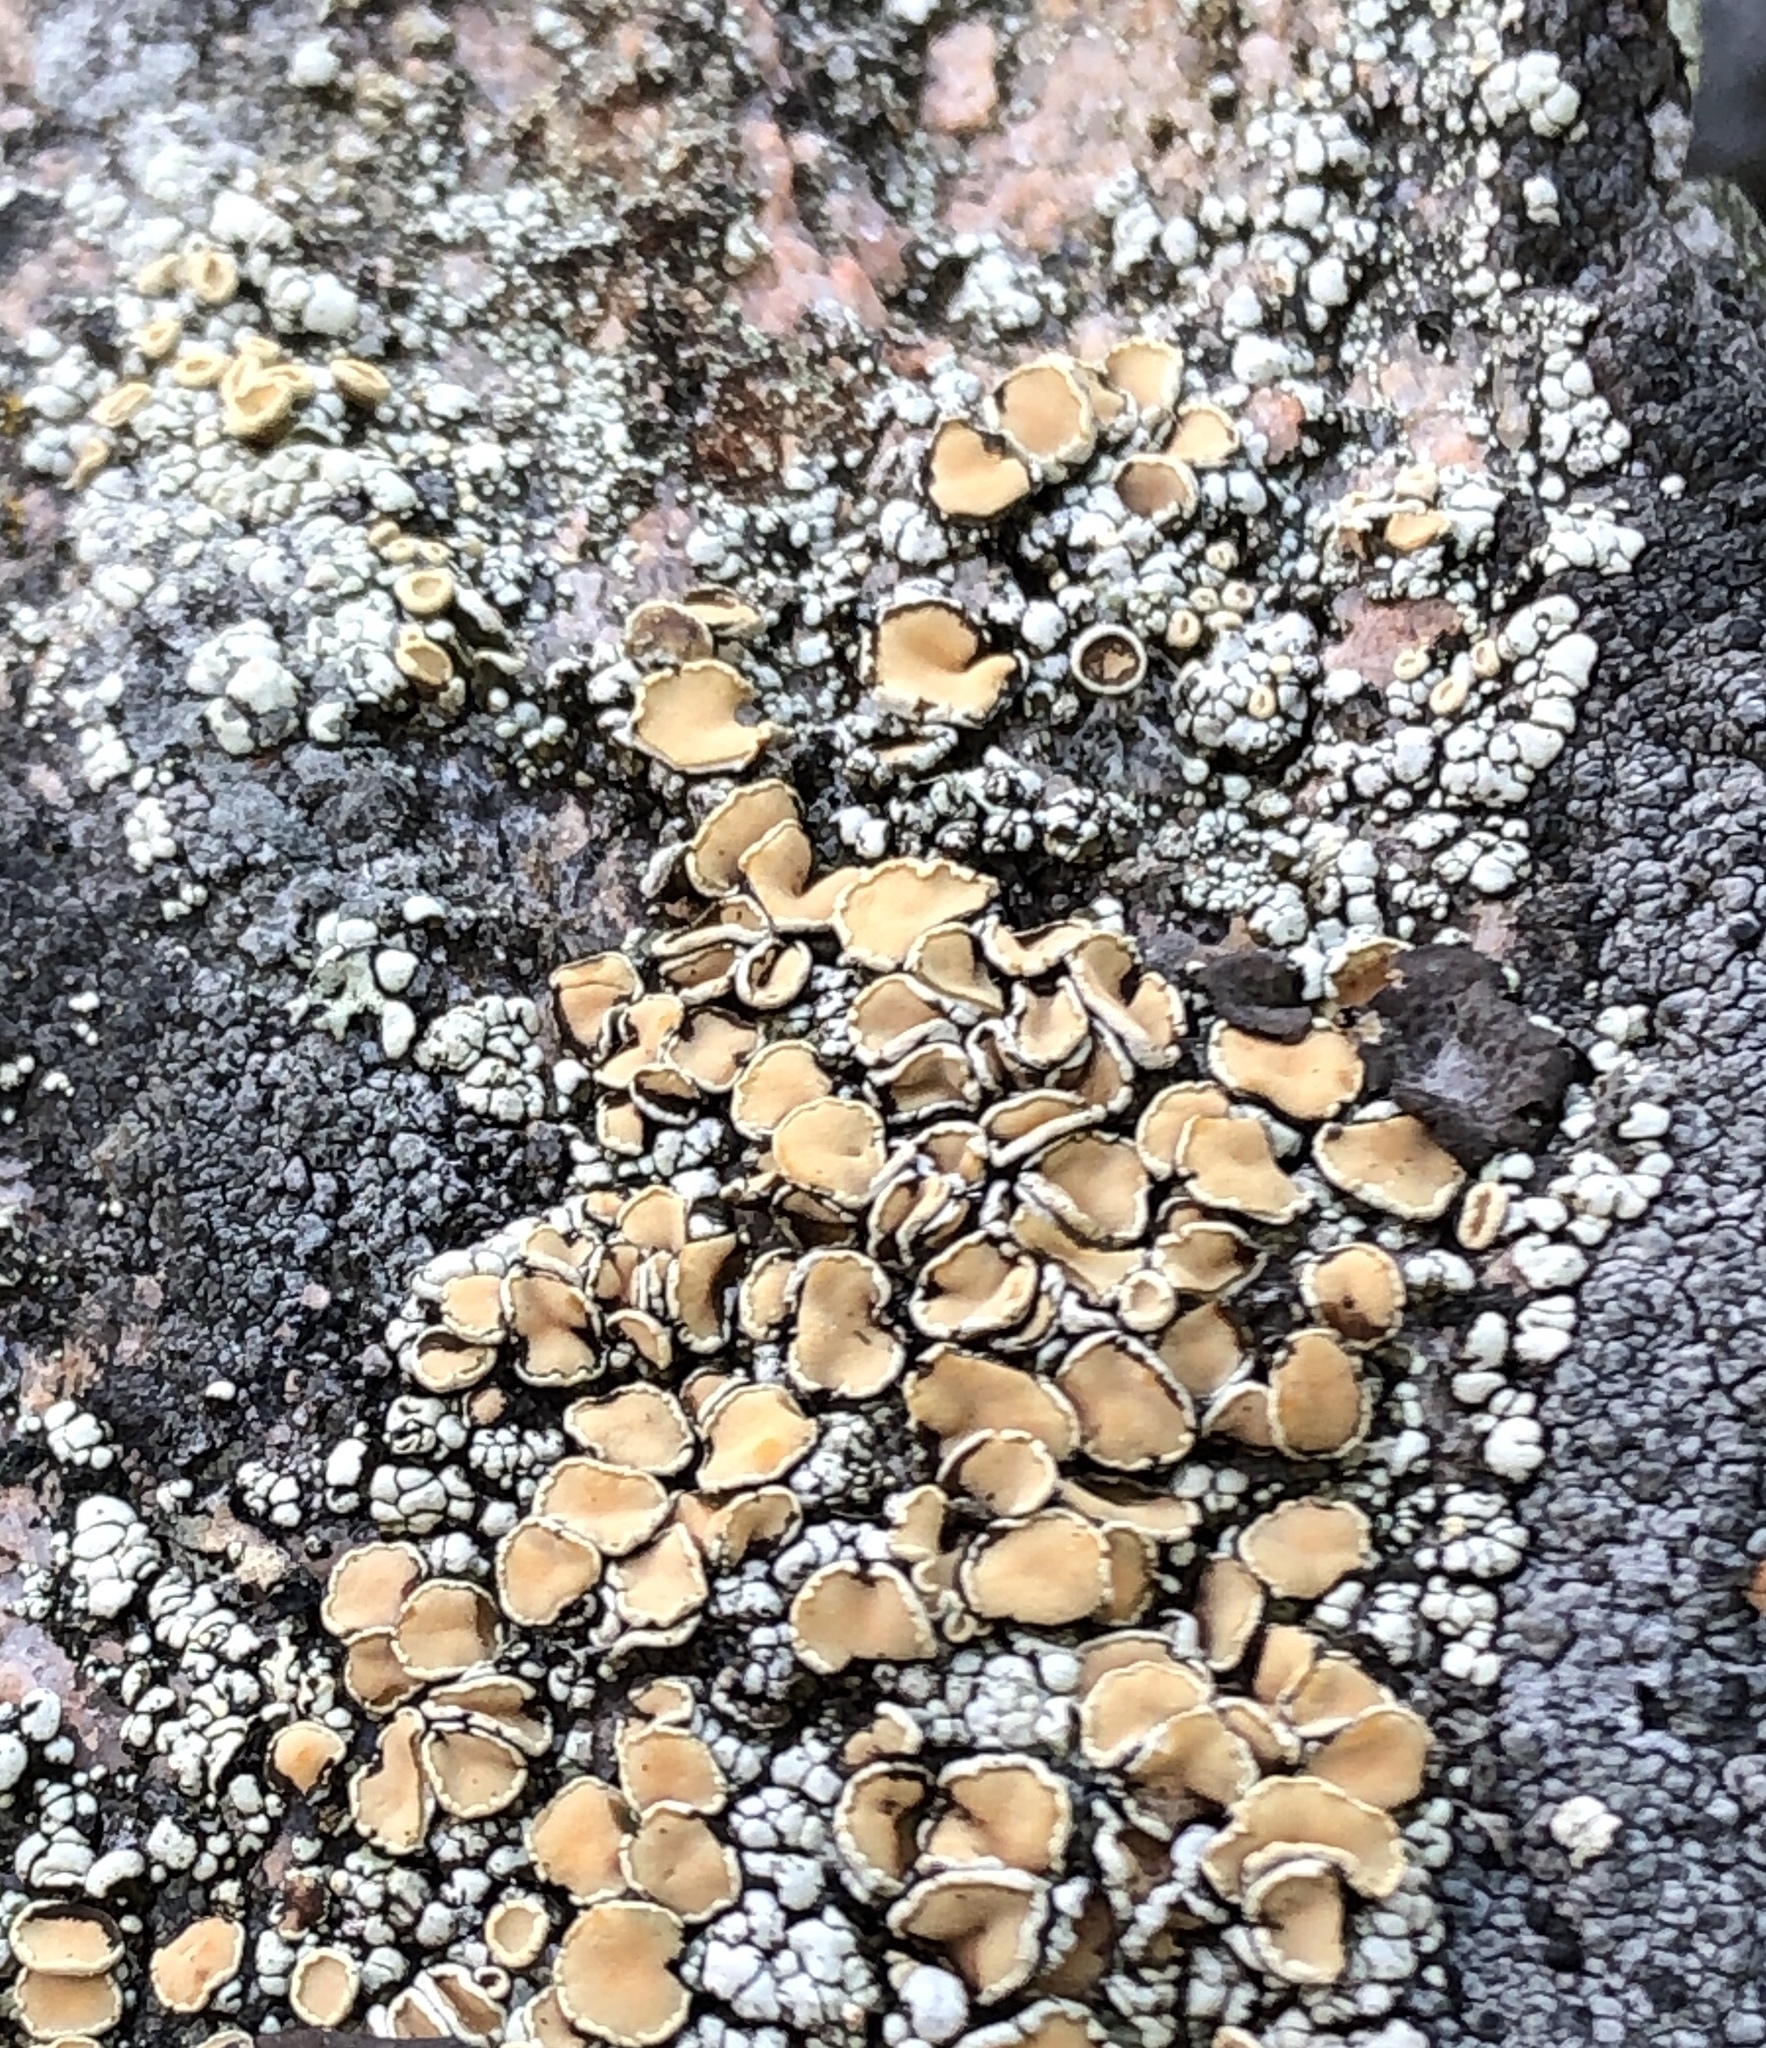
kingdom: Fungi
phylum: Ascomycota
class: Lecanoromycetes
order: Lecanorales
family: Lecanoraceae
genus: Sedelnikovaea
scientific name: Sedelnikovaea subdiscrepans
